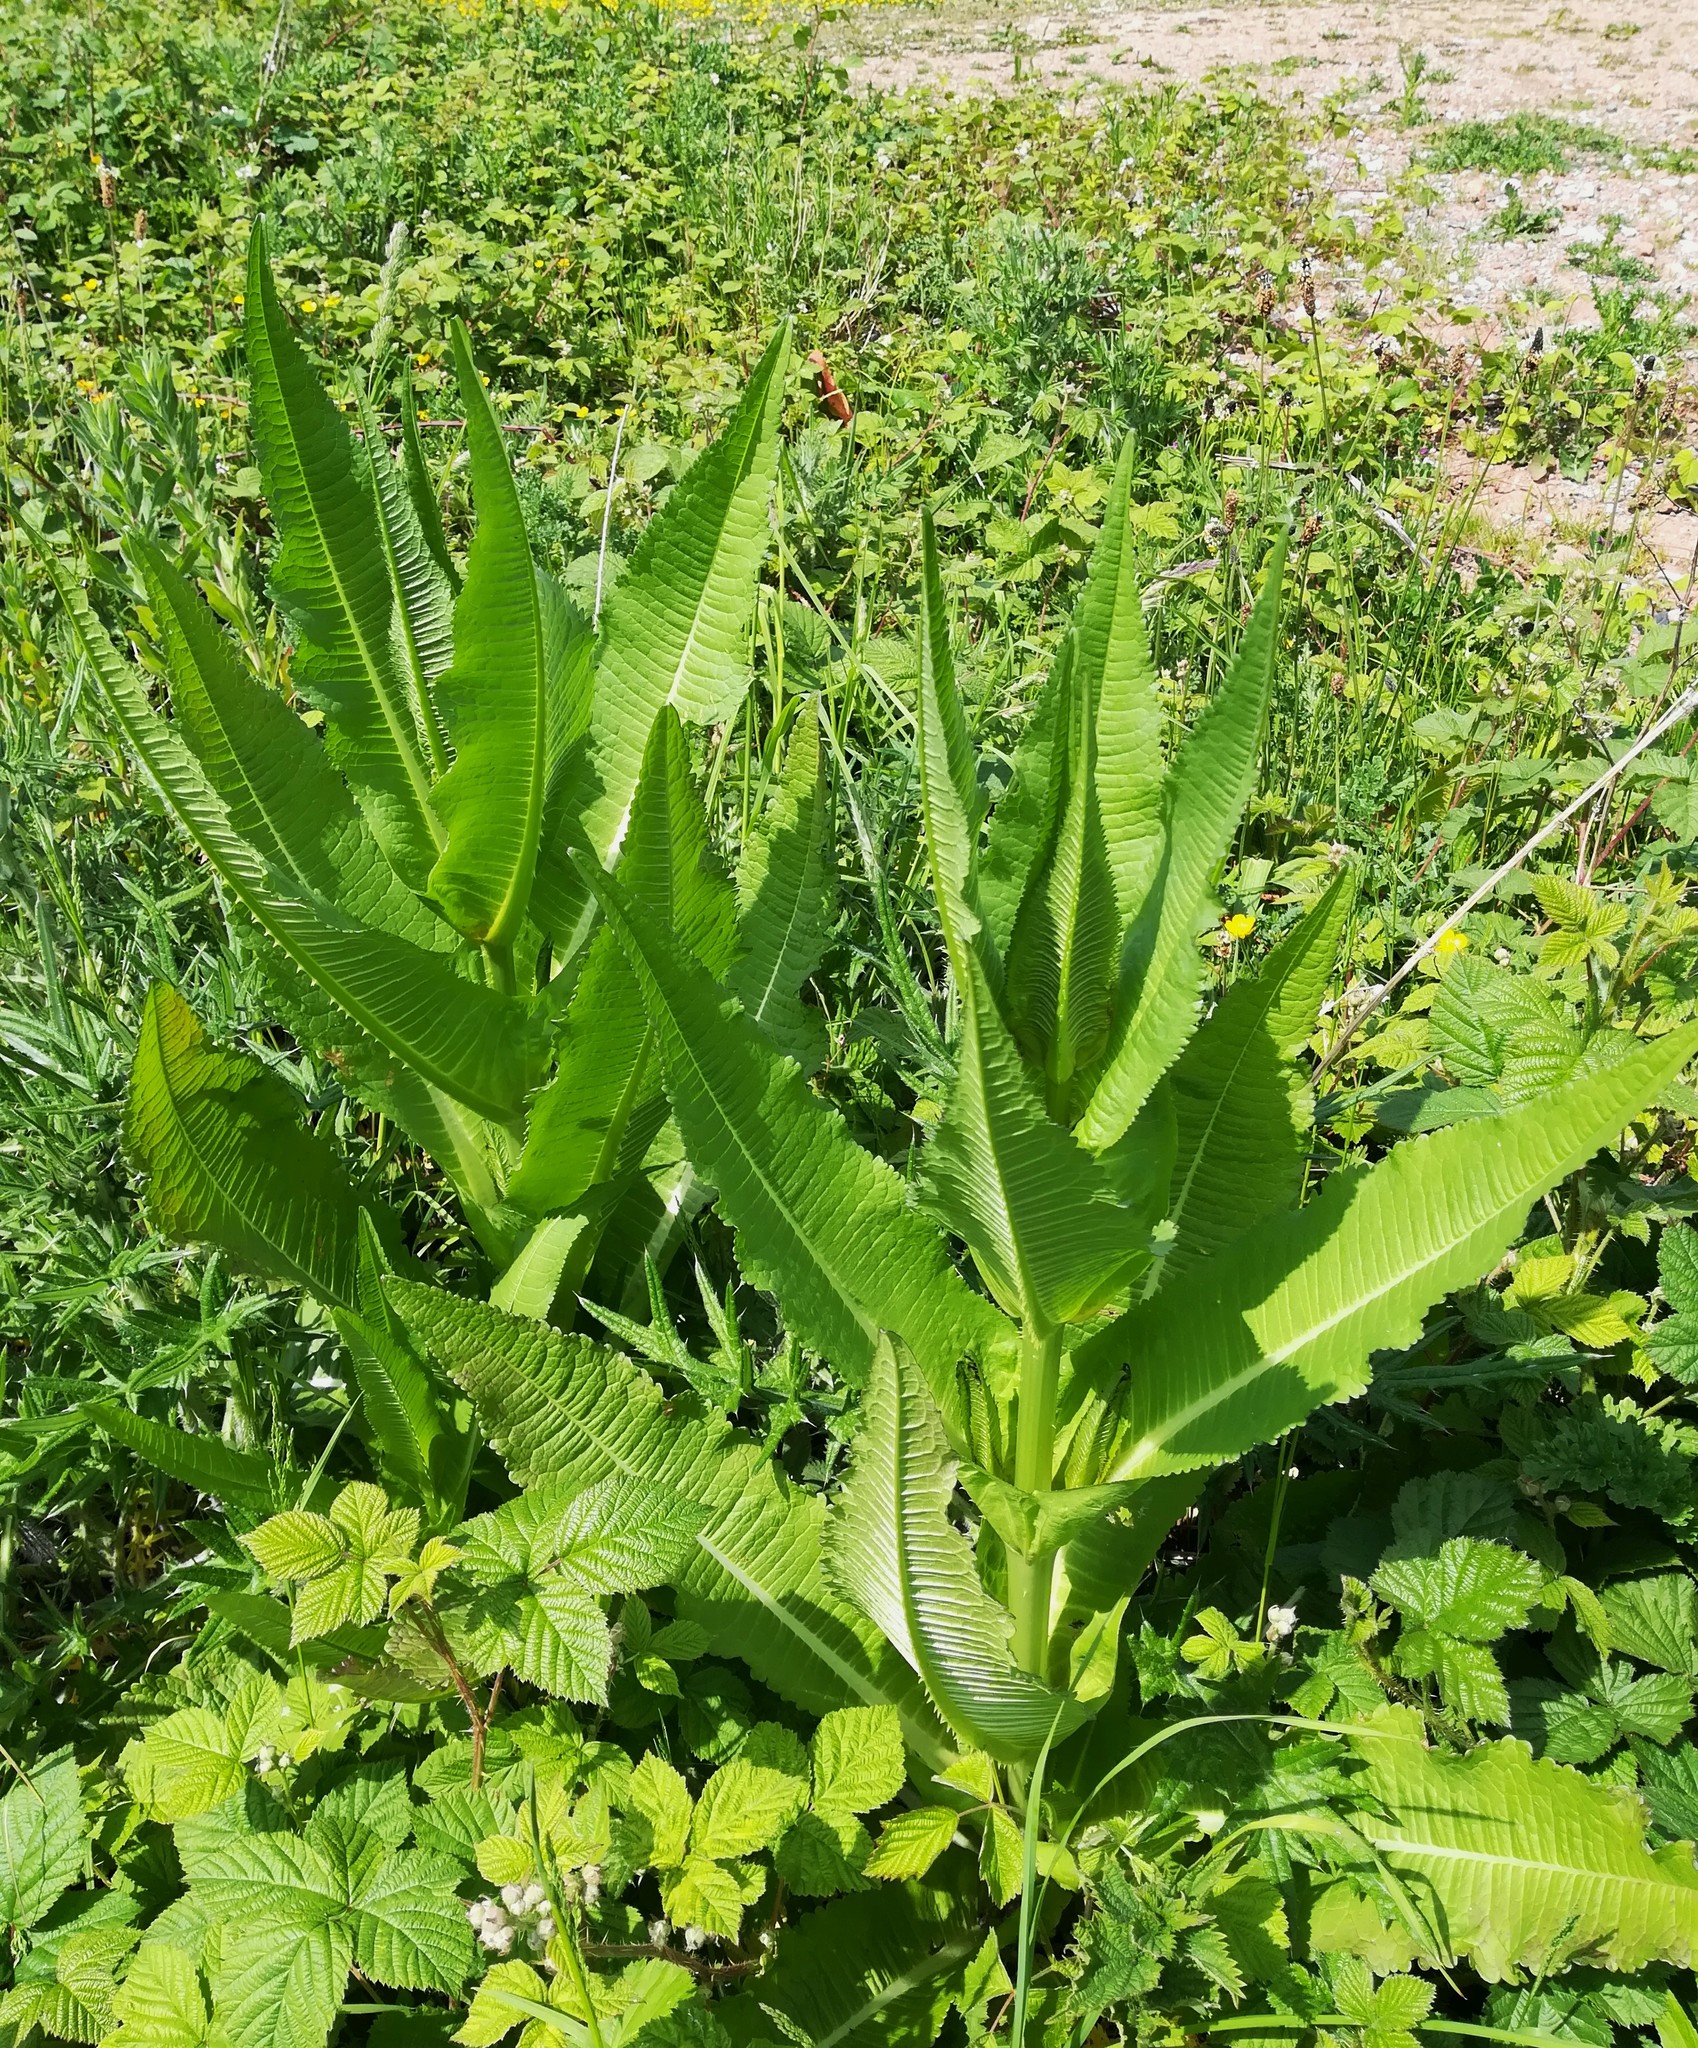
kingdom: Plantae
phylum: Tracheophyta
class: Magnoliopsida
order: Dipsacales
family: Caprifoliaceae
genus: Dipsacus
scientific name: Dipsacus fullonum
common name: Teasel
